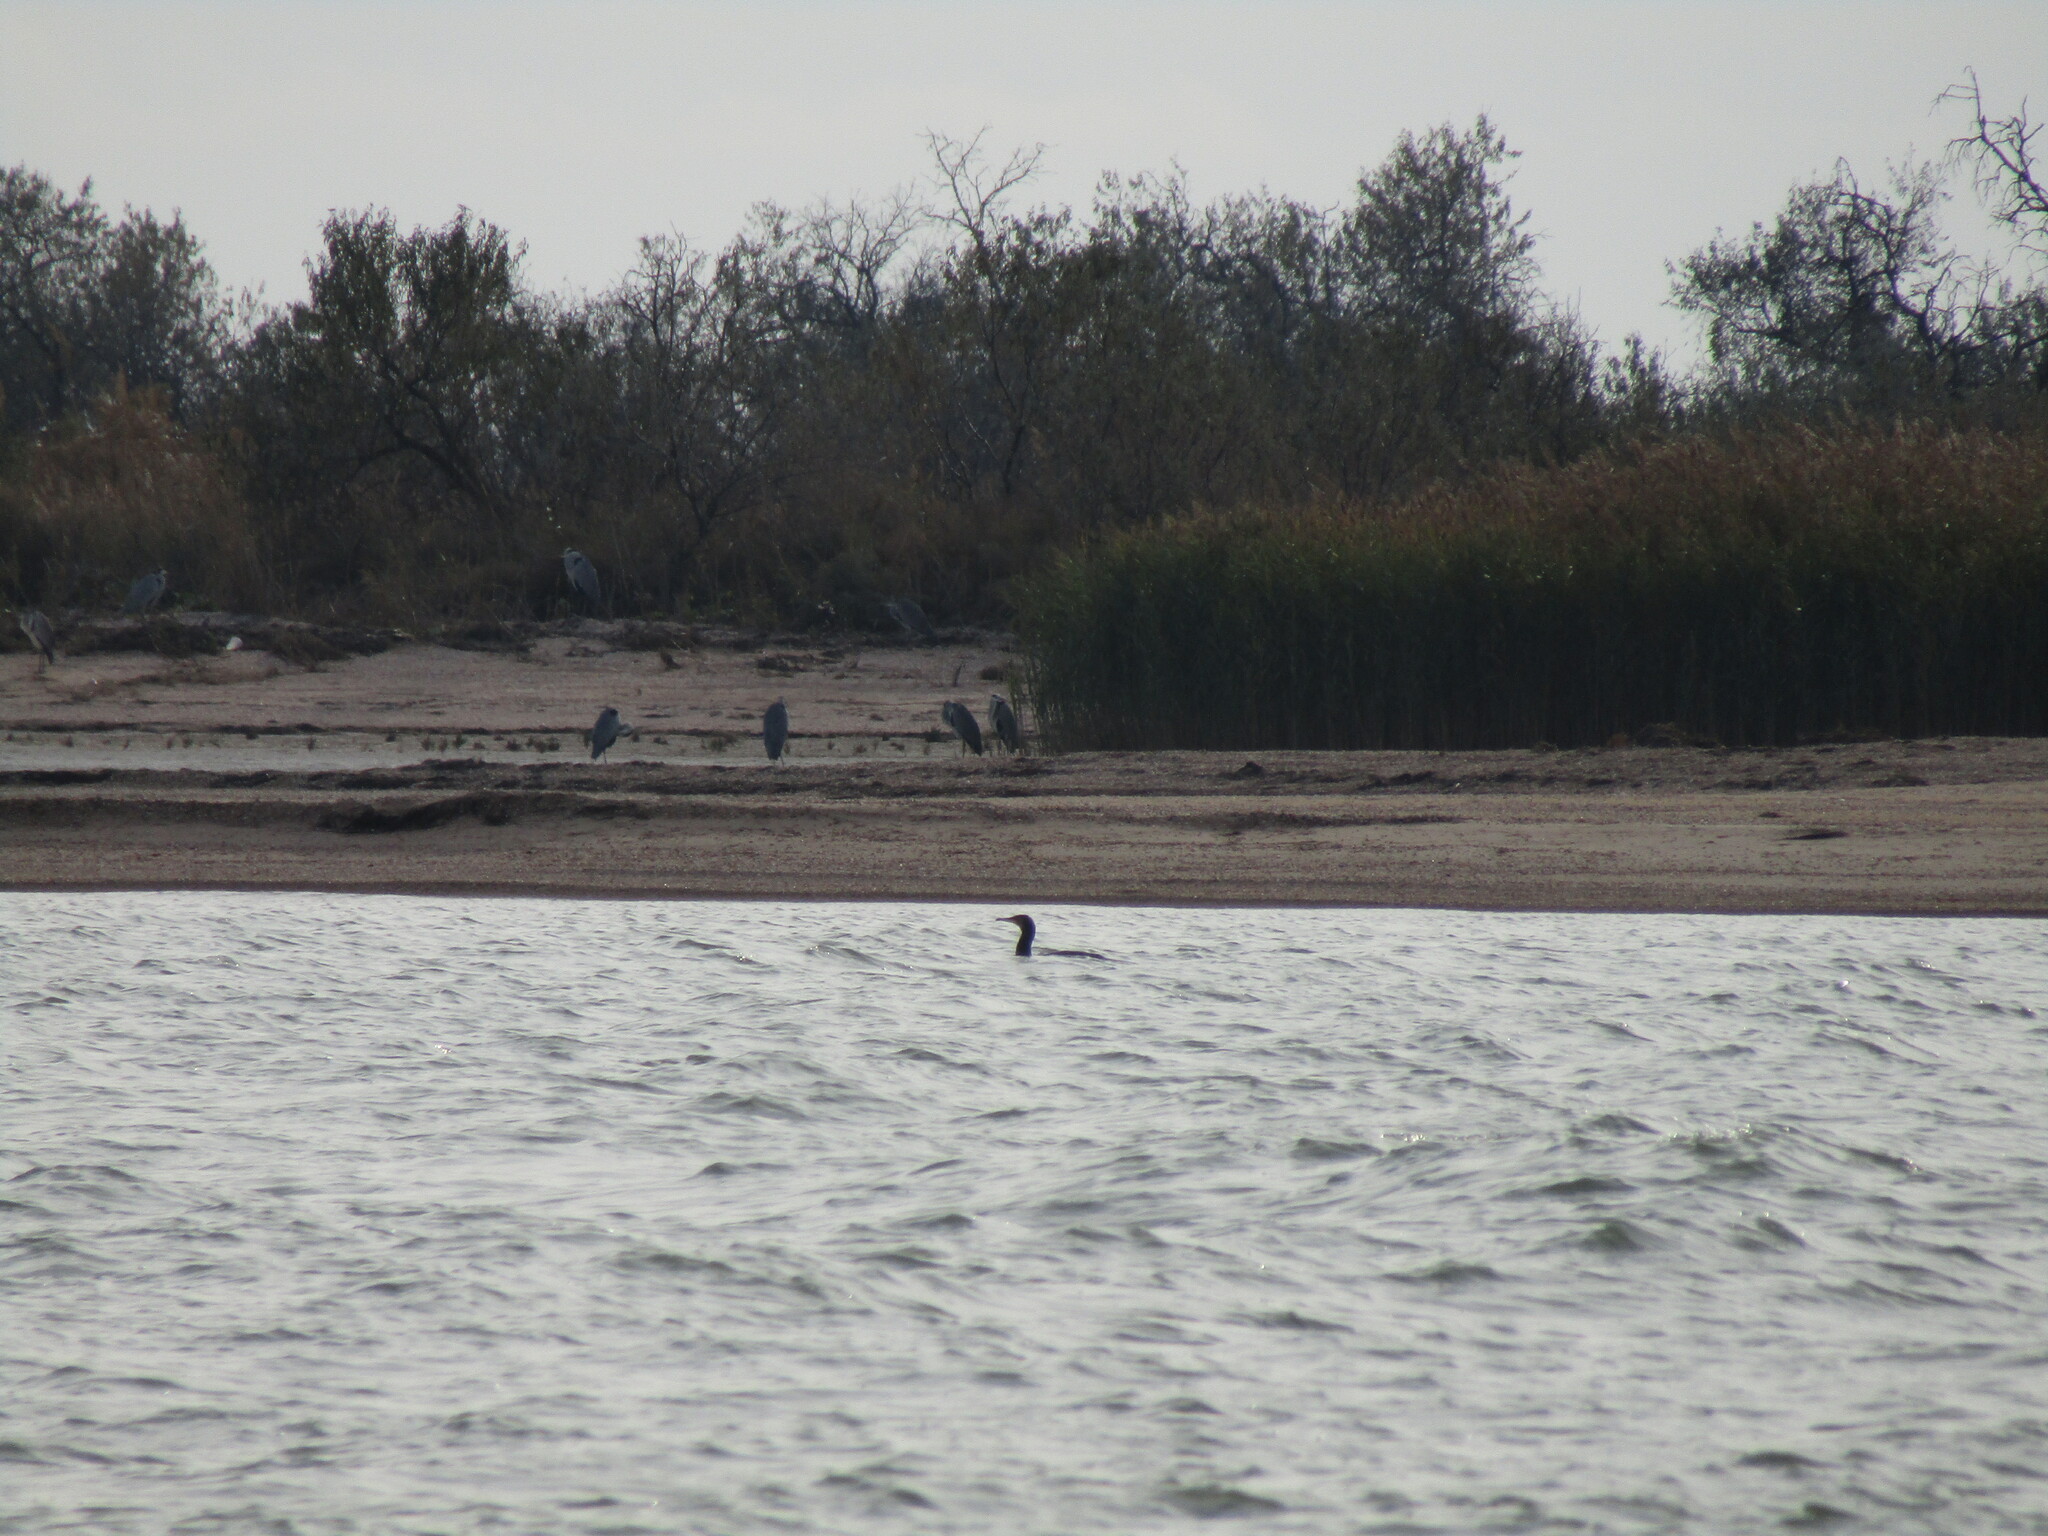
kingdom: Animalia
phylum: Chordata
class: Aves
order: Suliformes
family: Phalacrocoracidae
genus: Phalacrocorax
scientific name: Phalacrocorax carbo
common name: Great cormorant
